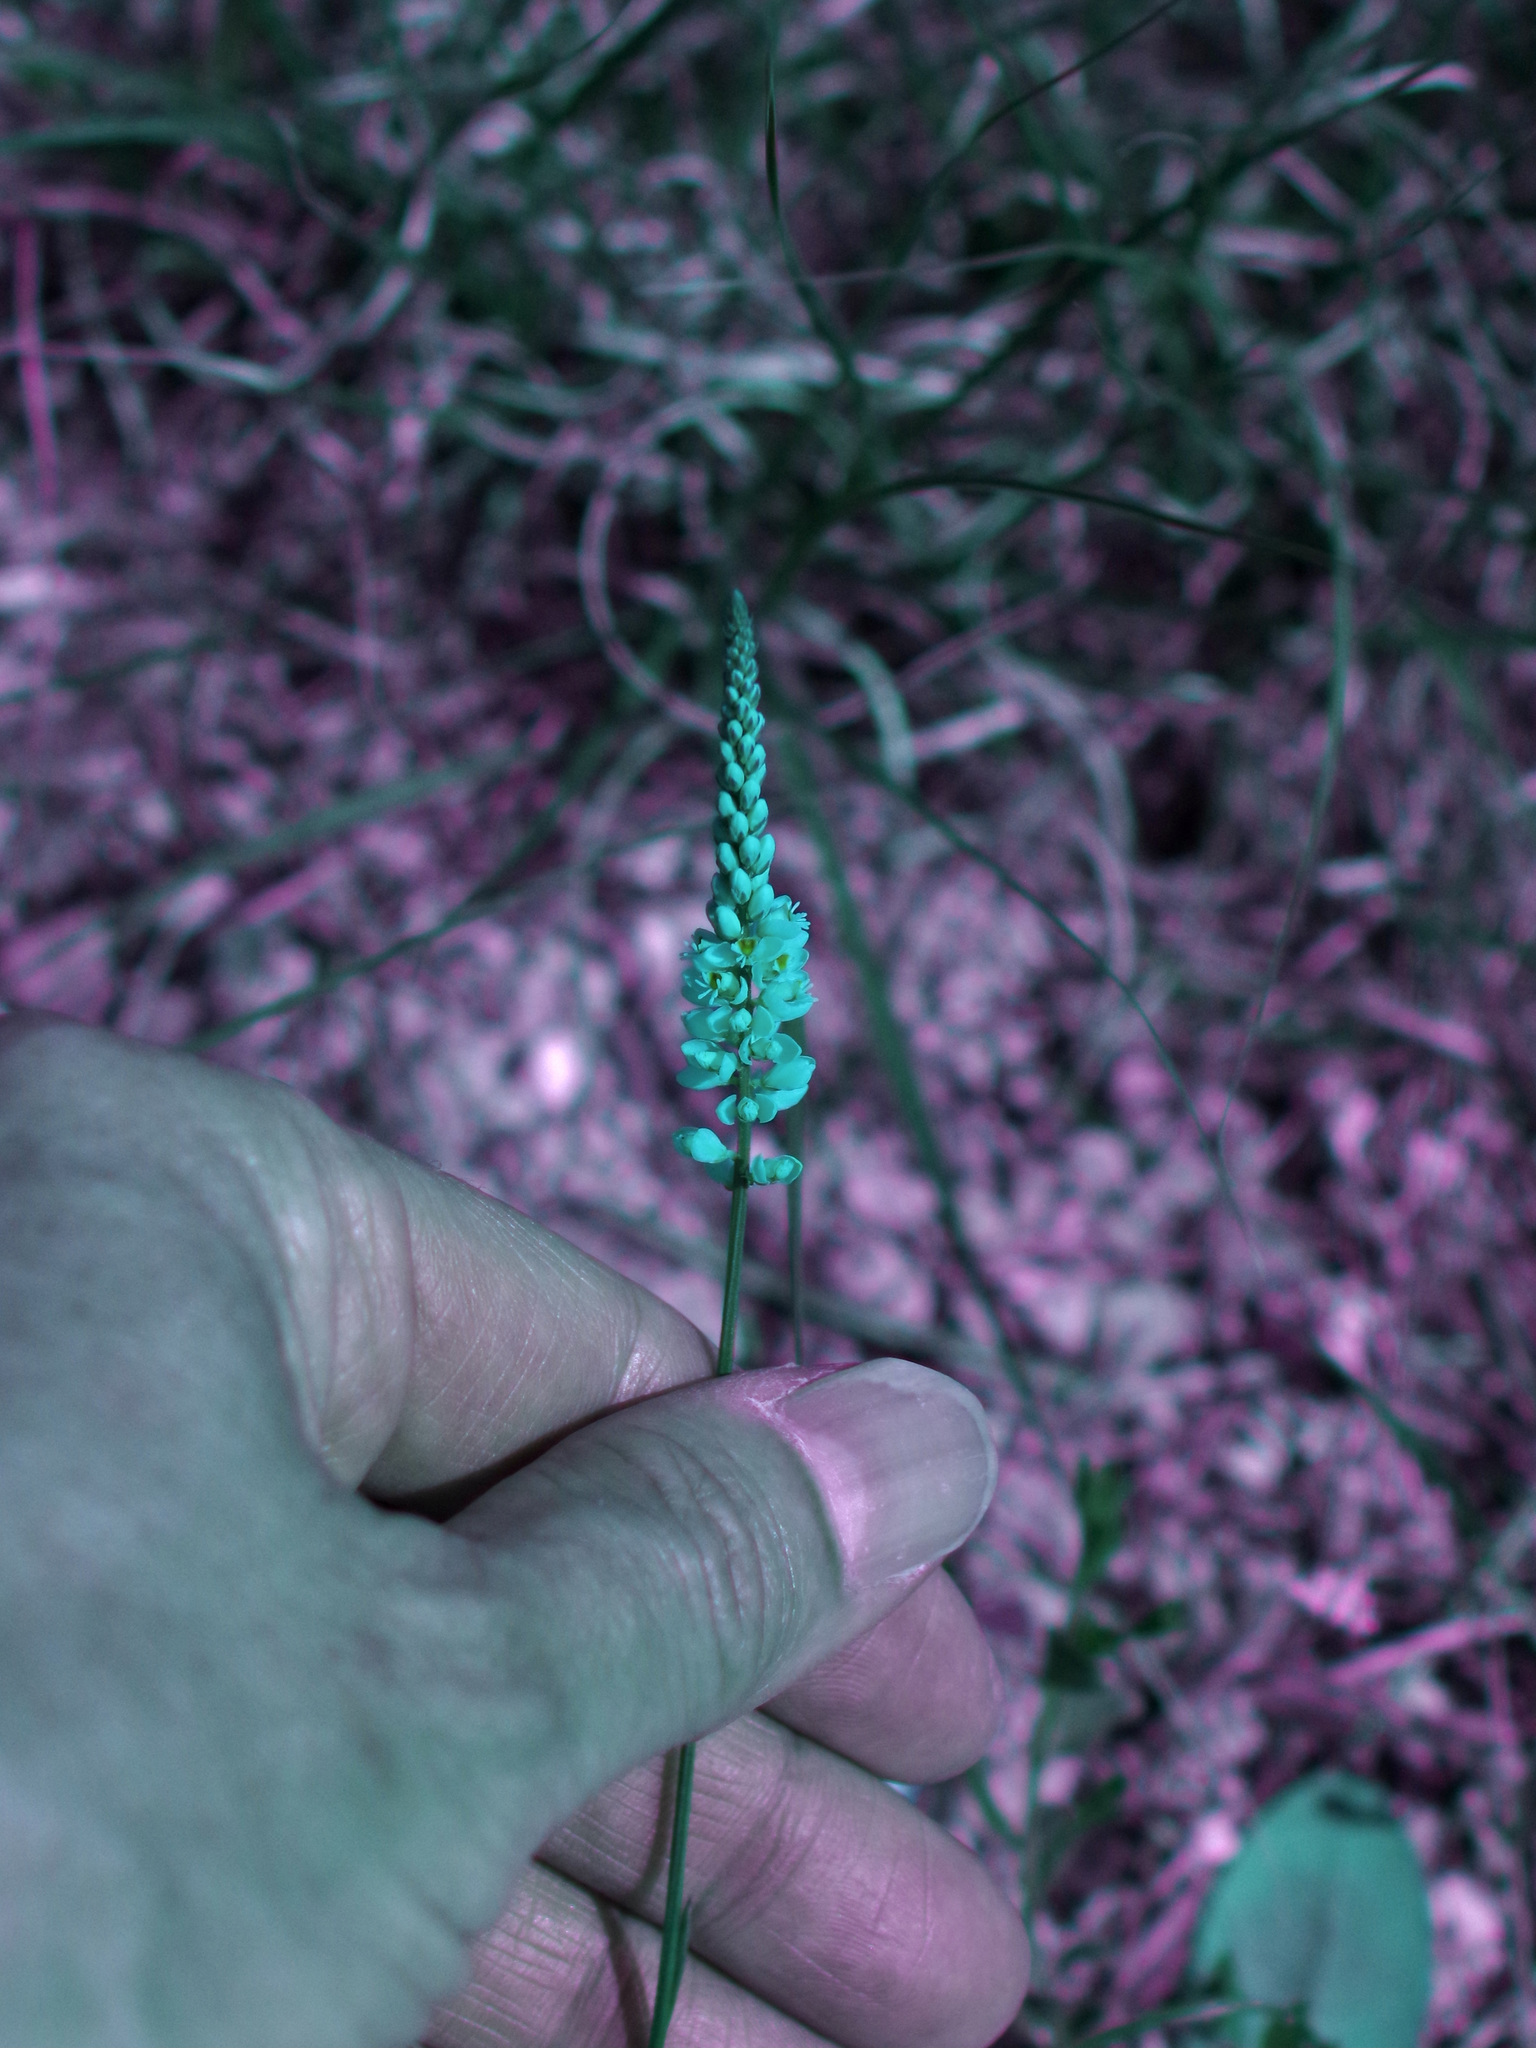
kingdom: Plantae
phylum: Tracheophyta
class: Magnoliopsida
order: Fabales
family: Polygalaceae
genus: Polygala
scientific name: Polygala alba
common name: White milkwort
